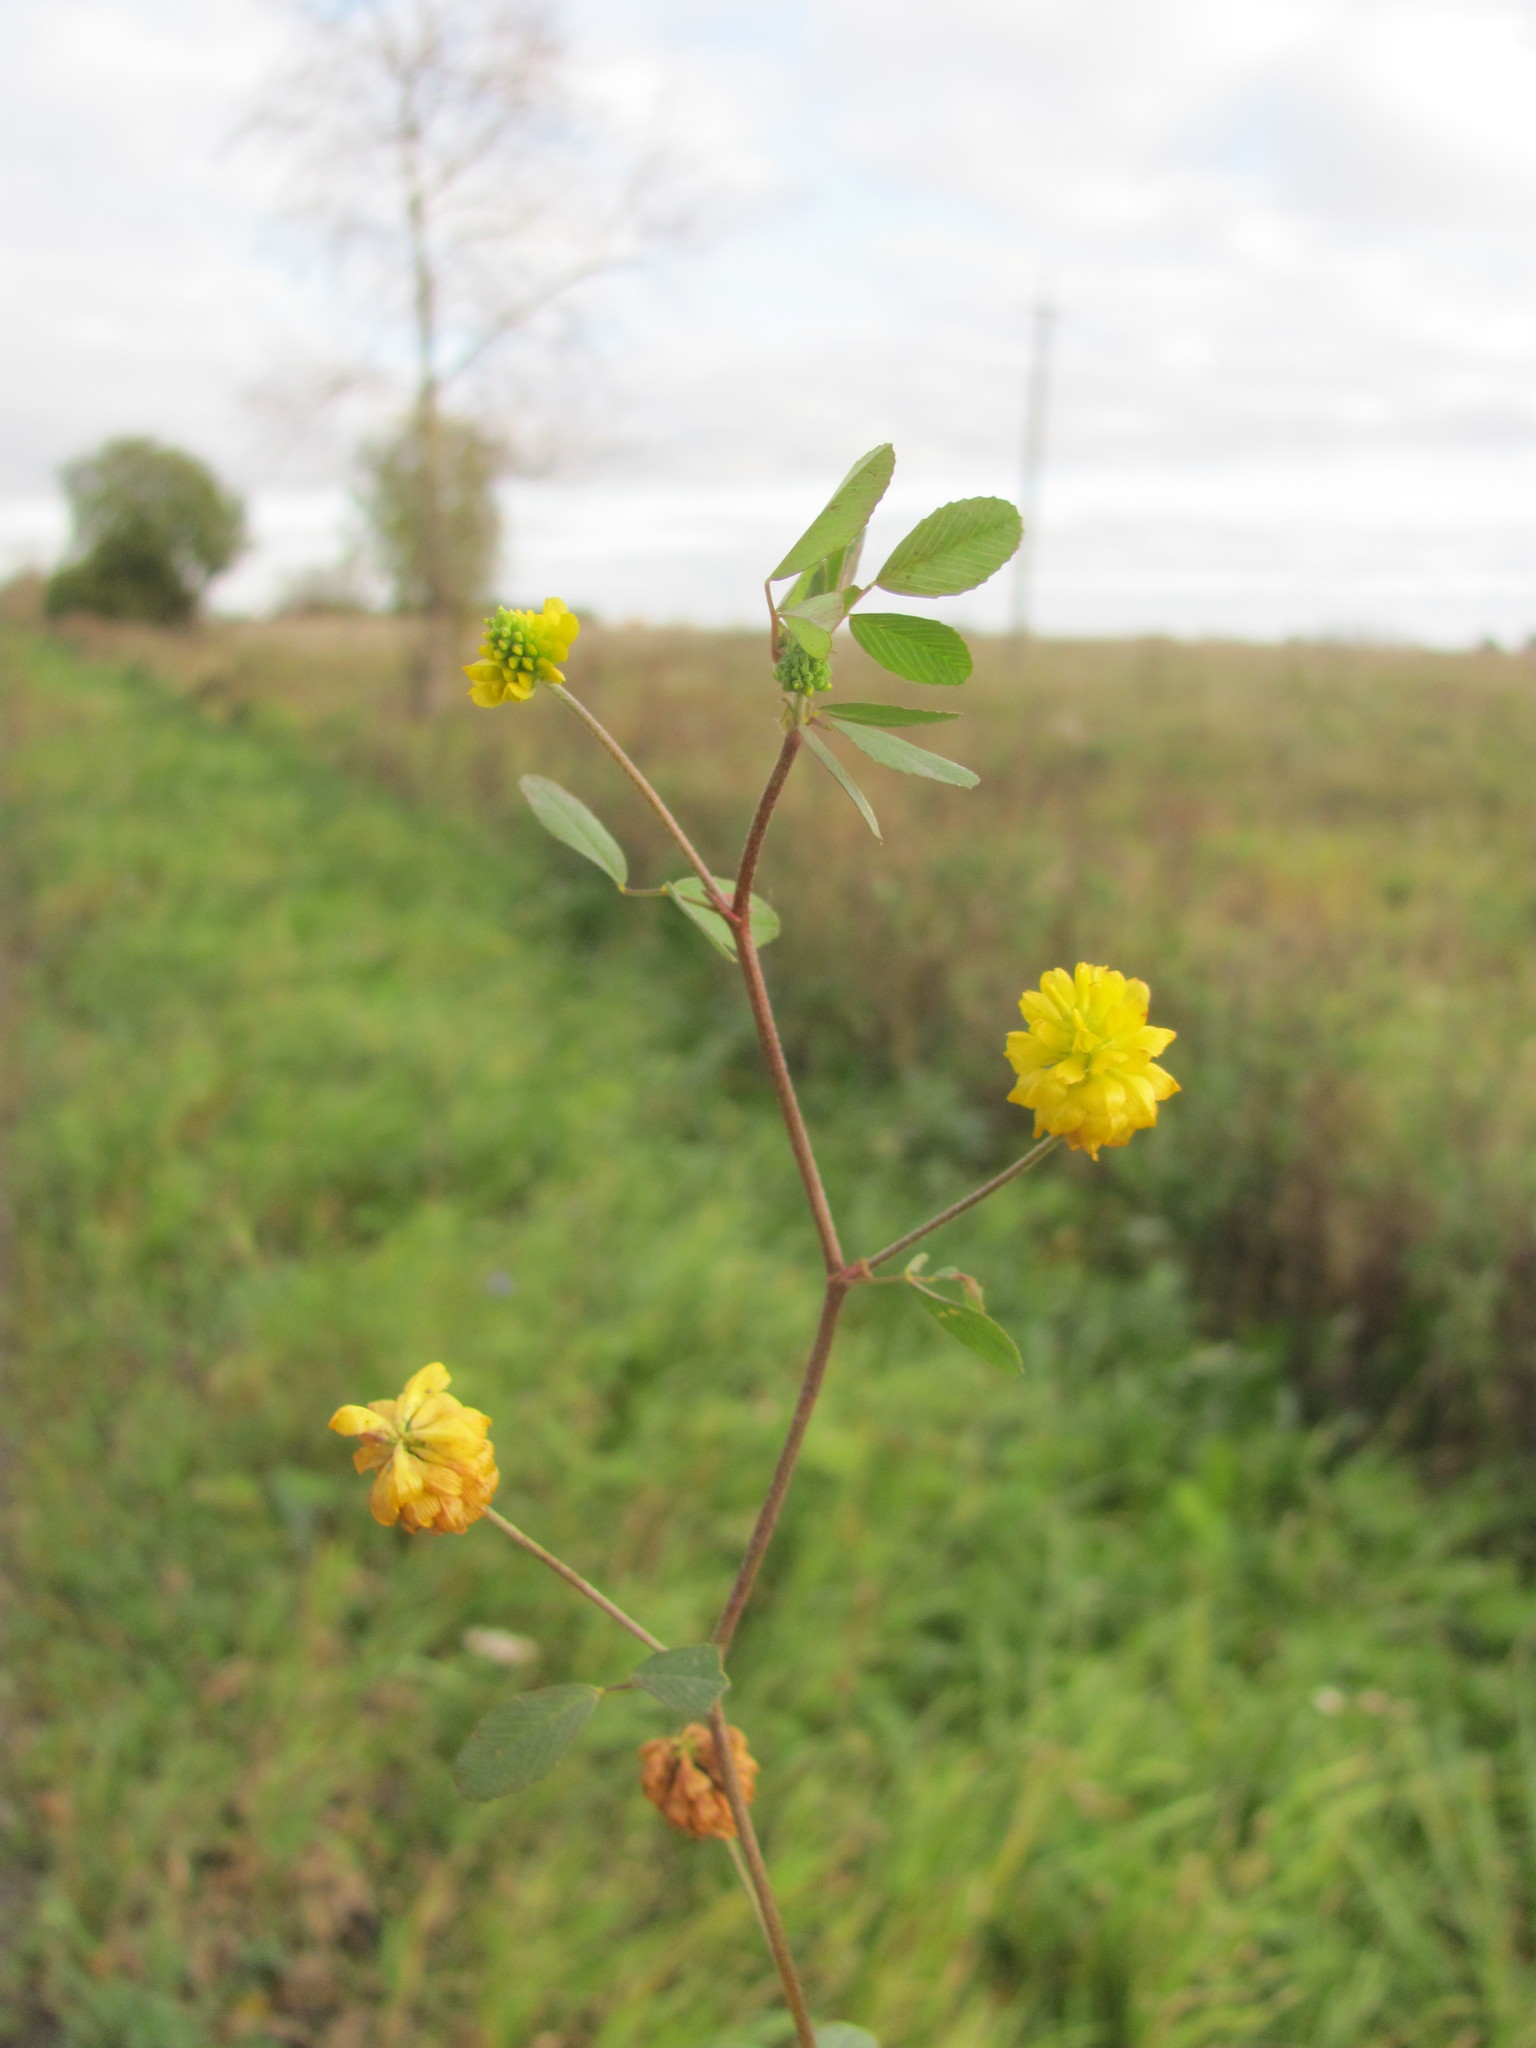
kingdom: Plantae
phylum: Tracheophyta
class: Magnoliopsida
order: Fabales
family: Fabaceae
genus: Trifolium
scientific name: Trifolium campestre
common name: Field clover
